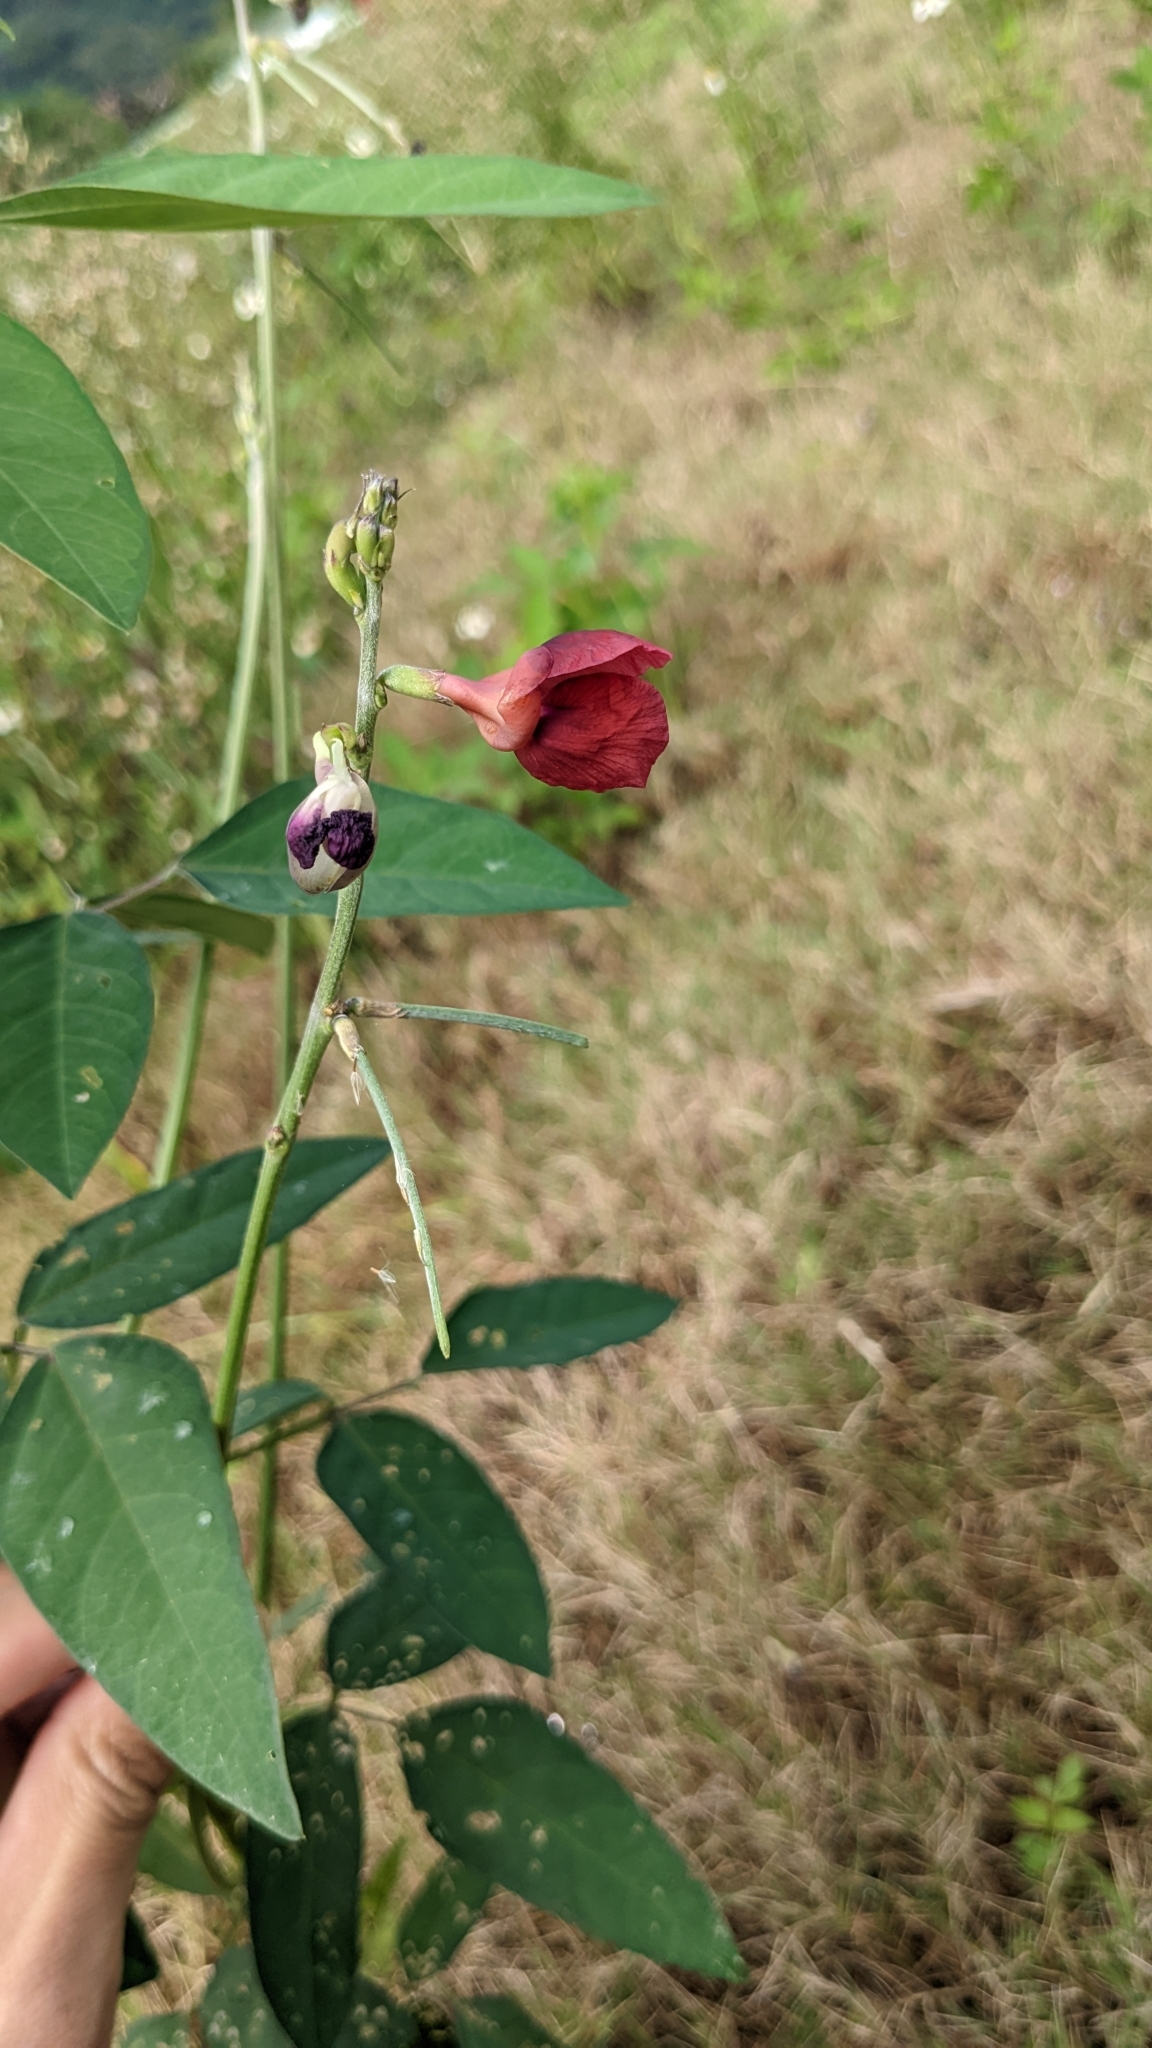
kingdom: Plantae
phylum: Tracheophyta
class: Magnoliopsida
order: Fabales
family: Fabaceae
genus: Macroptilium
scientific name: Macroptilium lathyroides
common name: Wild bushbean
